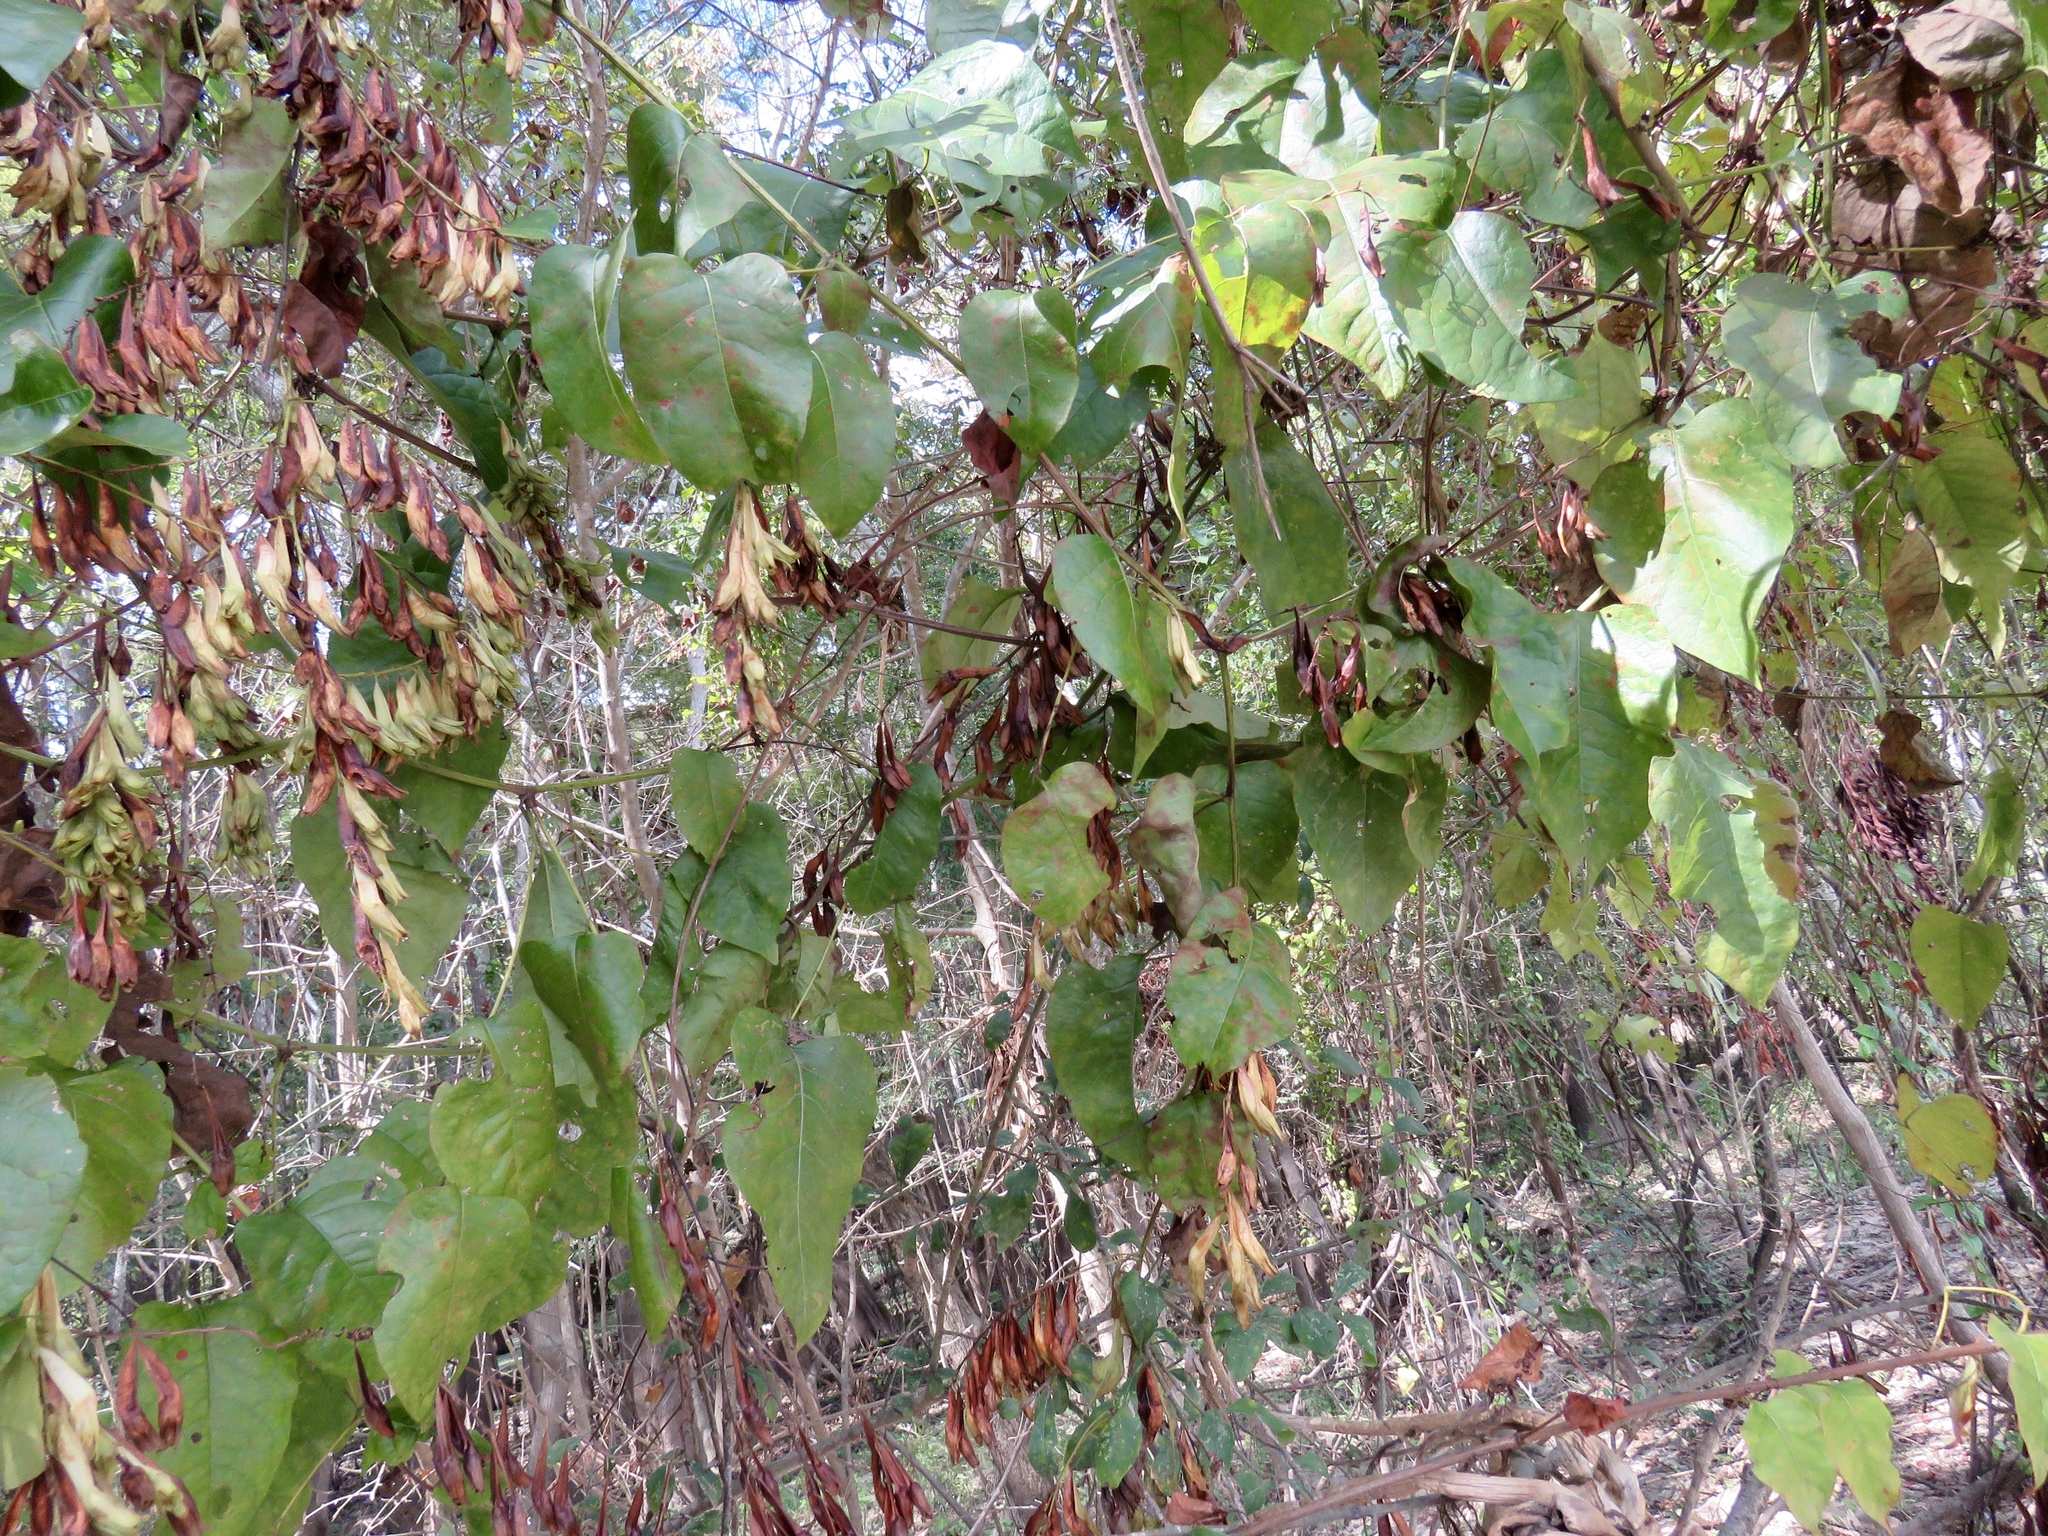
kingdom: Plantae
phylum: Tracheophyta
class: Magnoliopsida
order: Caryophyllales
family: Polygonaceae
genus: Brunnichia
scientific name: Brunnichia ovata
